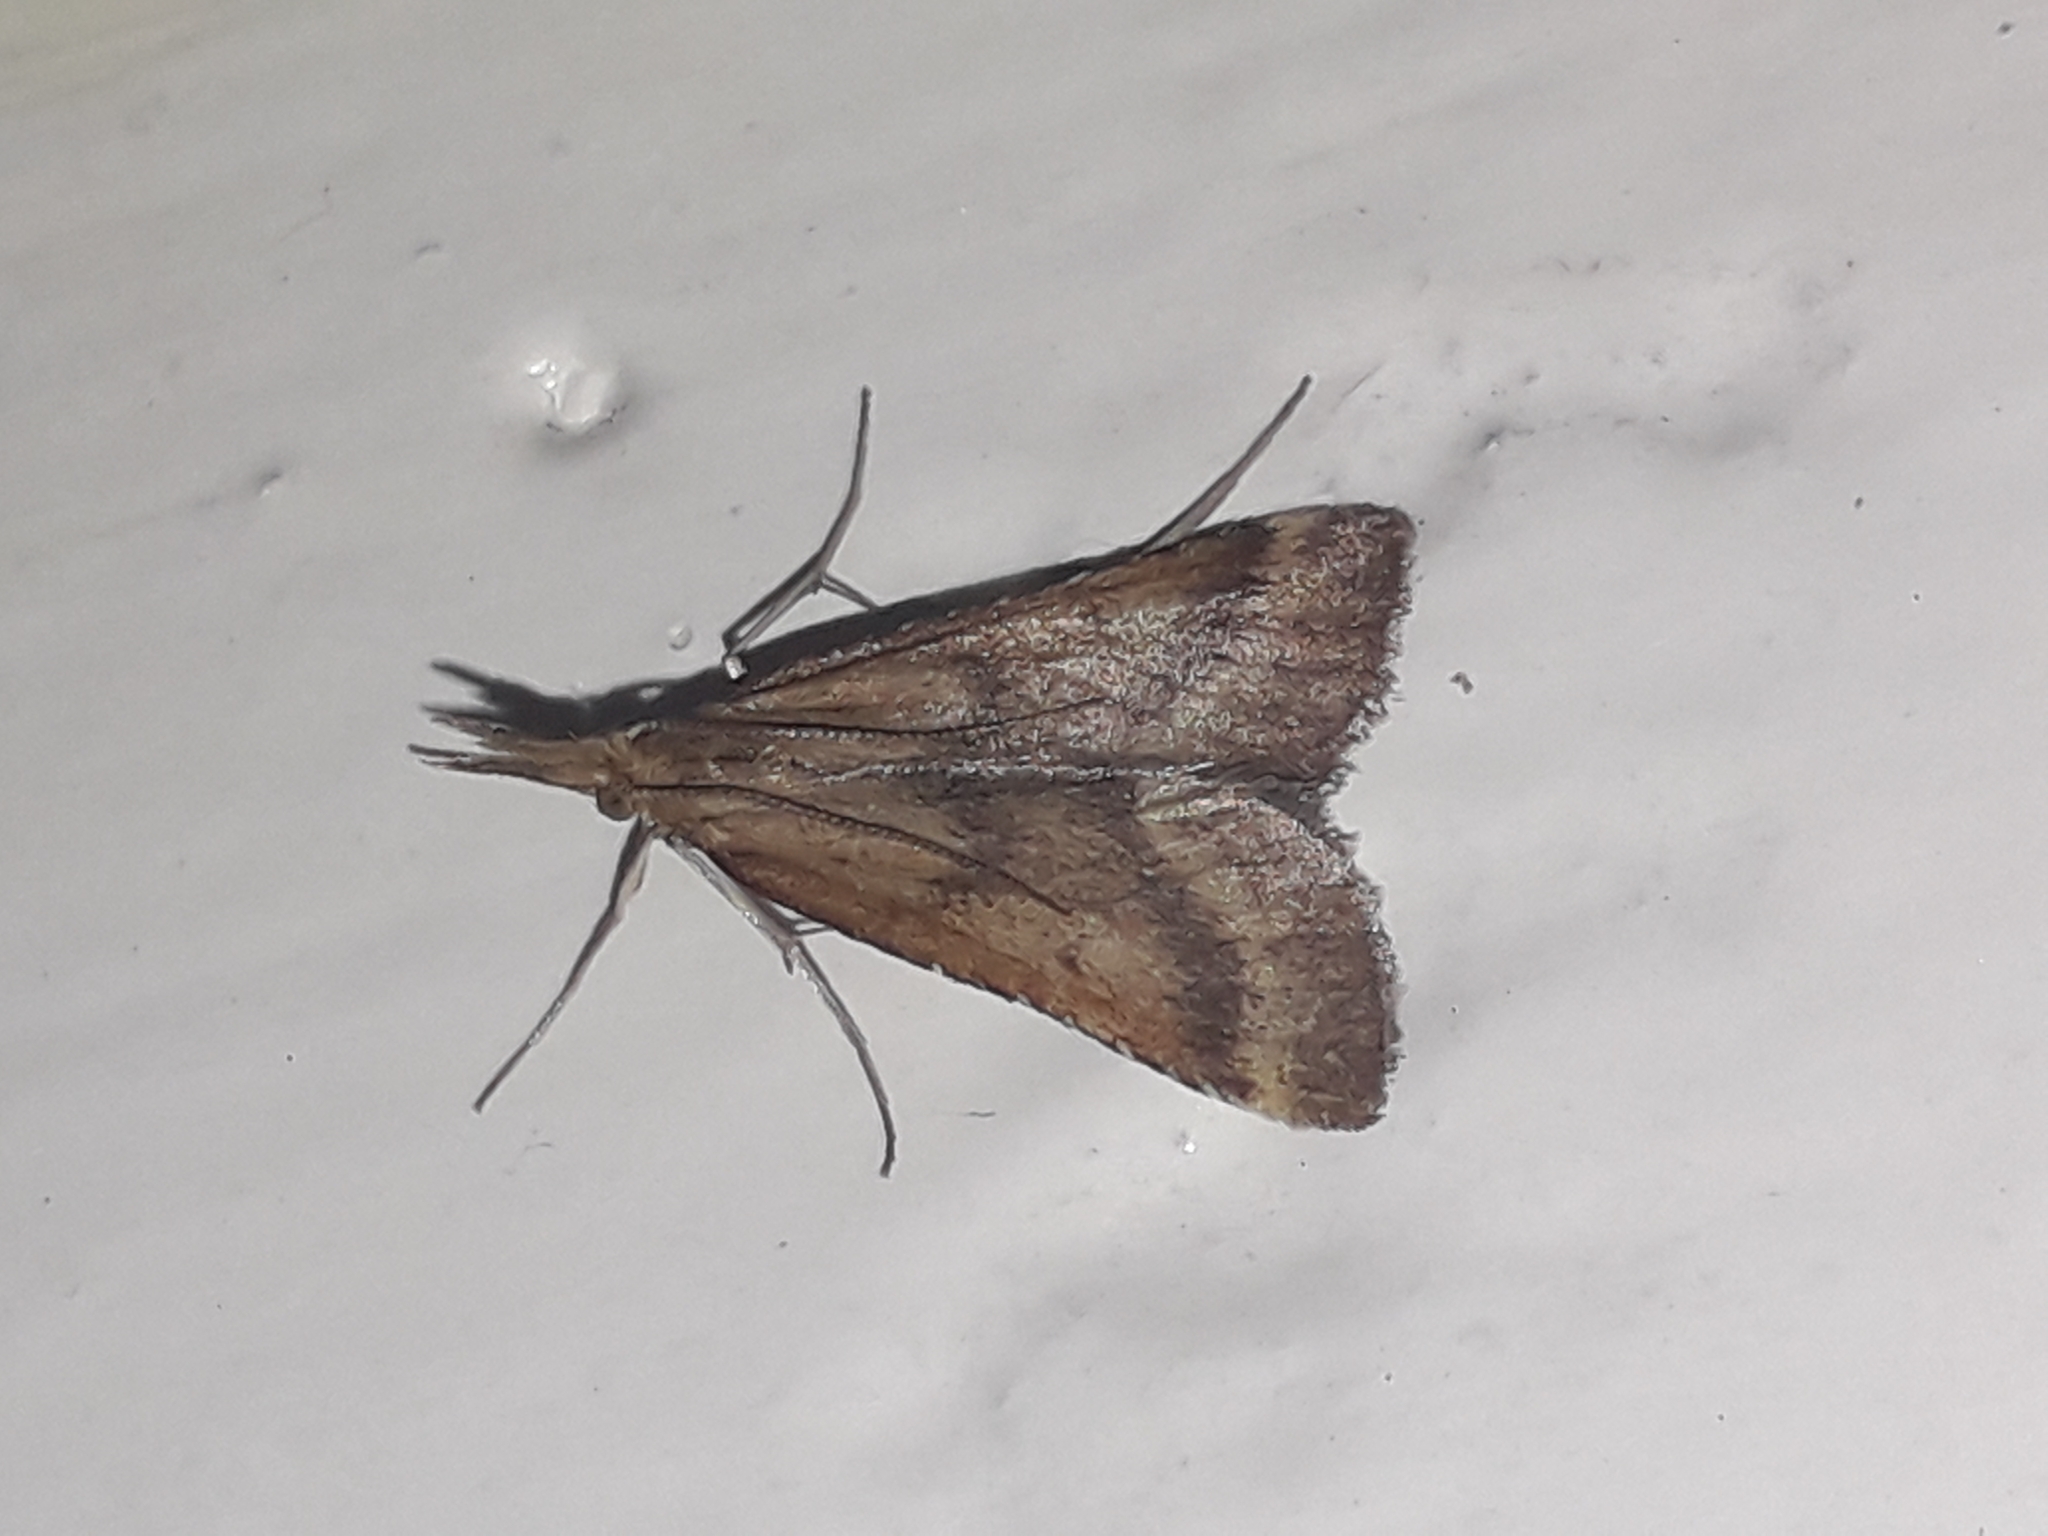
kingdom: Animalia
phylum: Arthropoda
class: Insecta
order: Lepidoptera
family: Pyralidae
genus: Synaphe
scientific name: Synaphe punctalis
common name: Long-legged tabby
